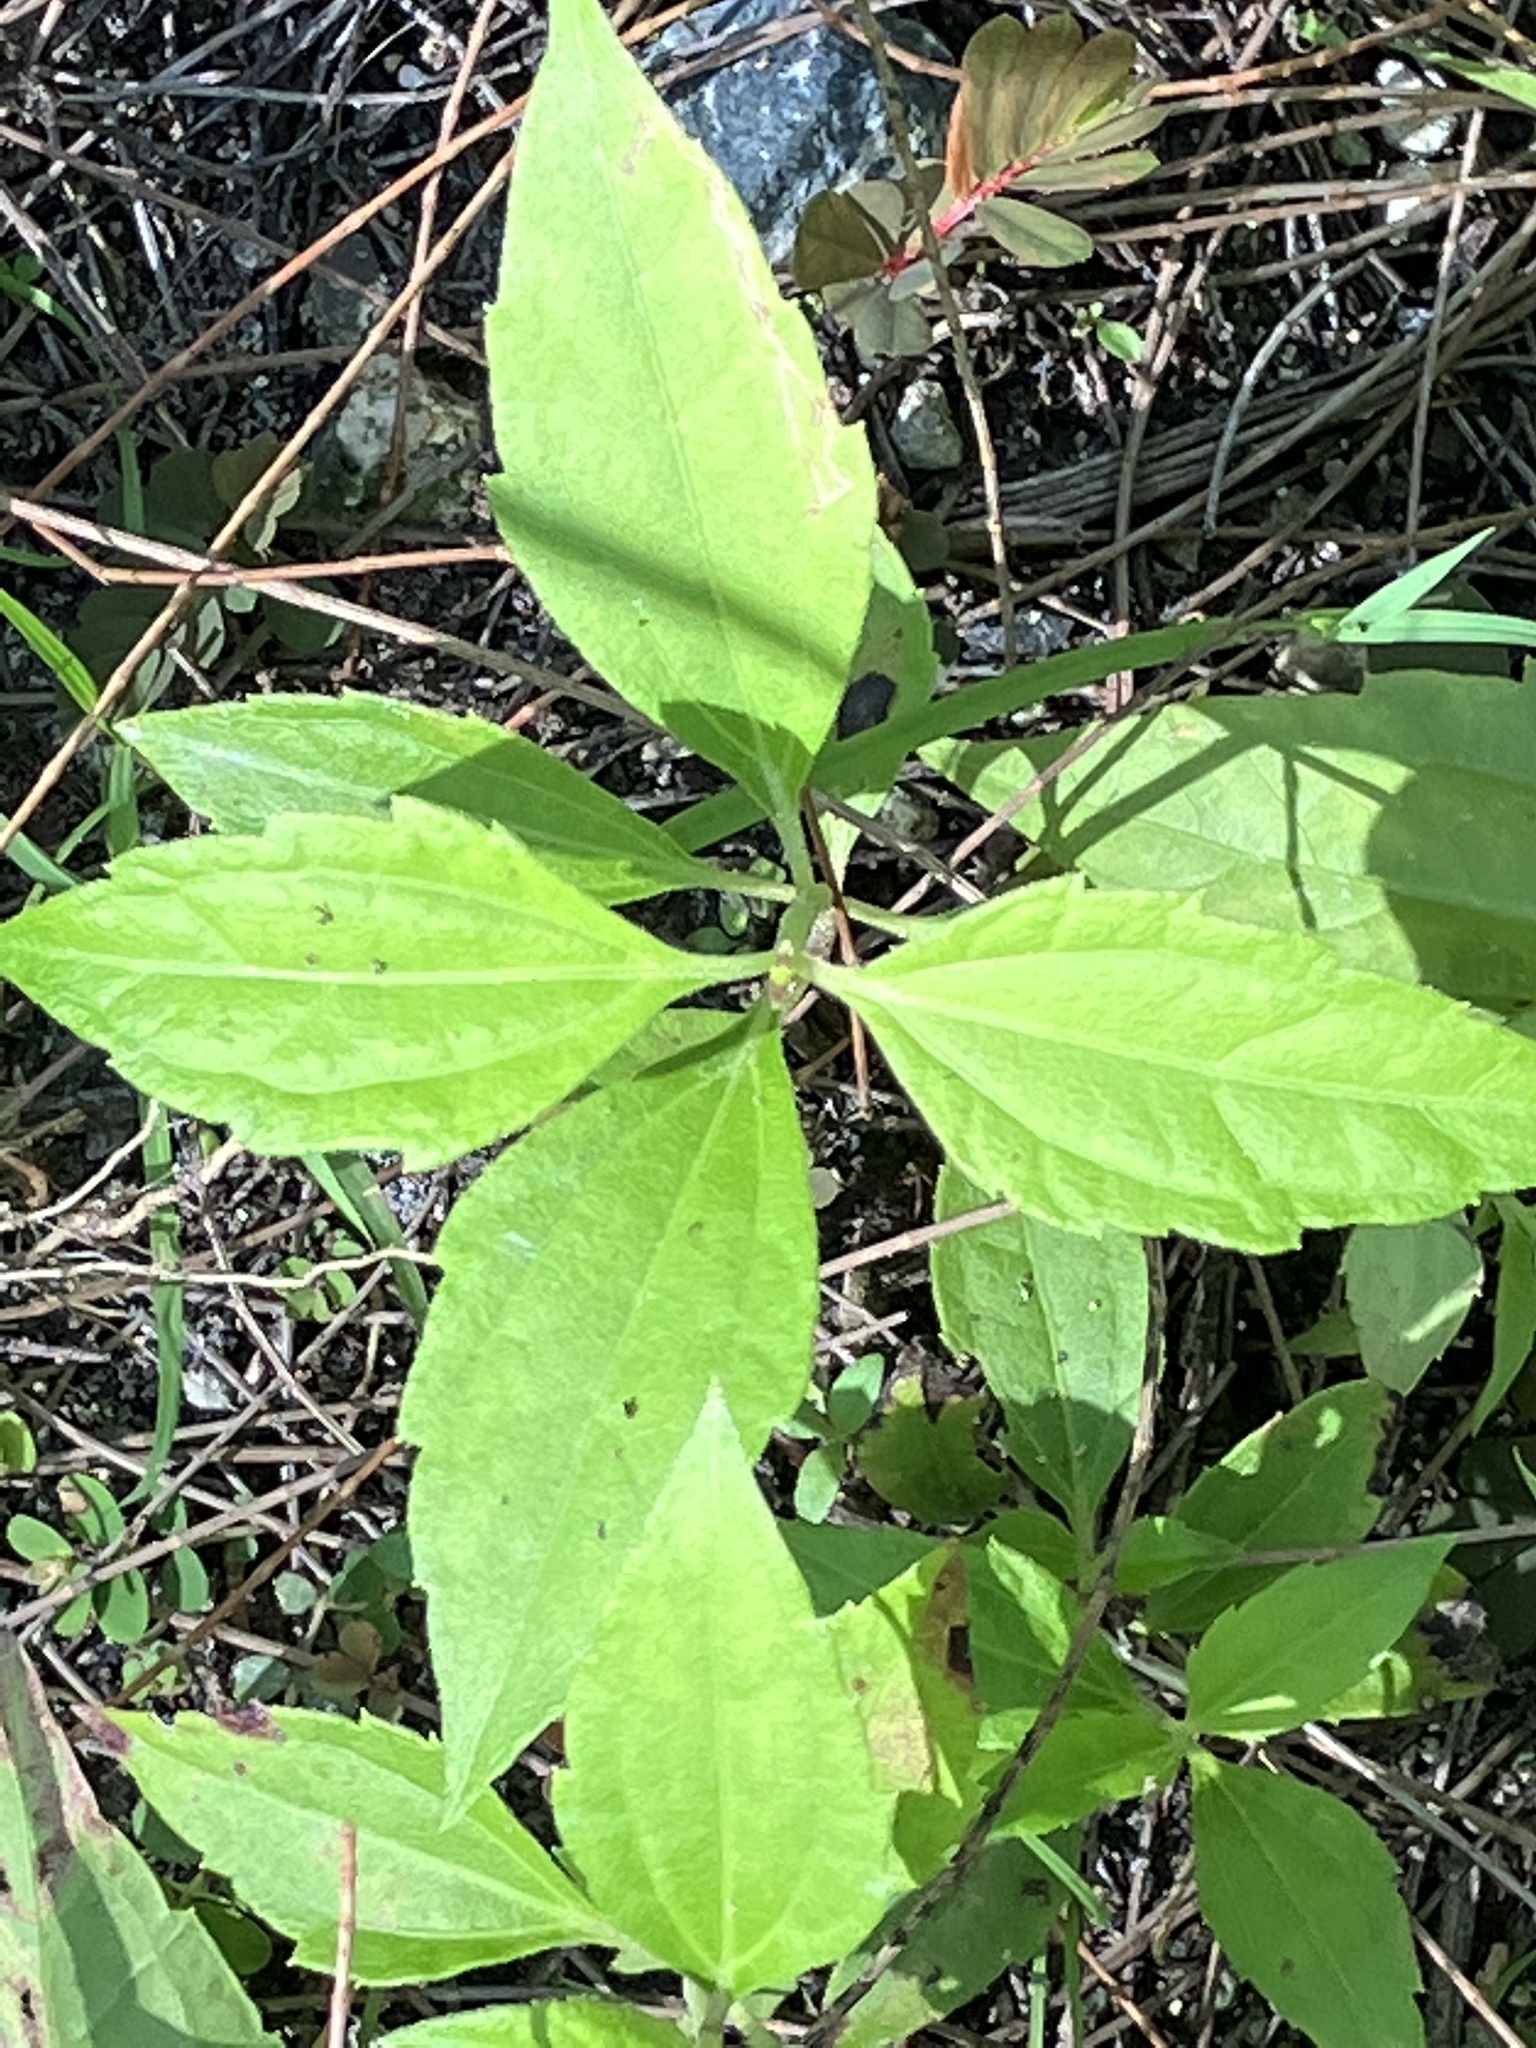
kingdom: Plantae
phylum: Tracheophyta
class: Magnoliopsida
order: Asterales
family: Asteraceae
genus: Chromolaena
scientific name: Chromolaena odorata
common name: Siamweed
